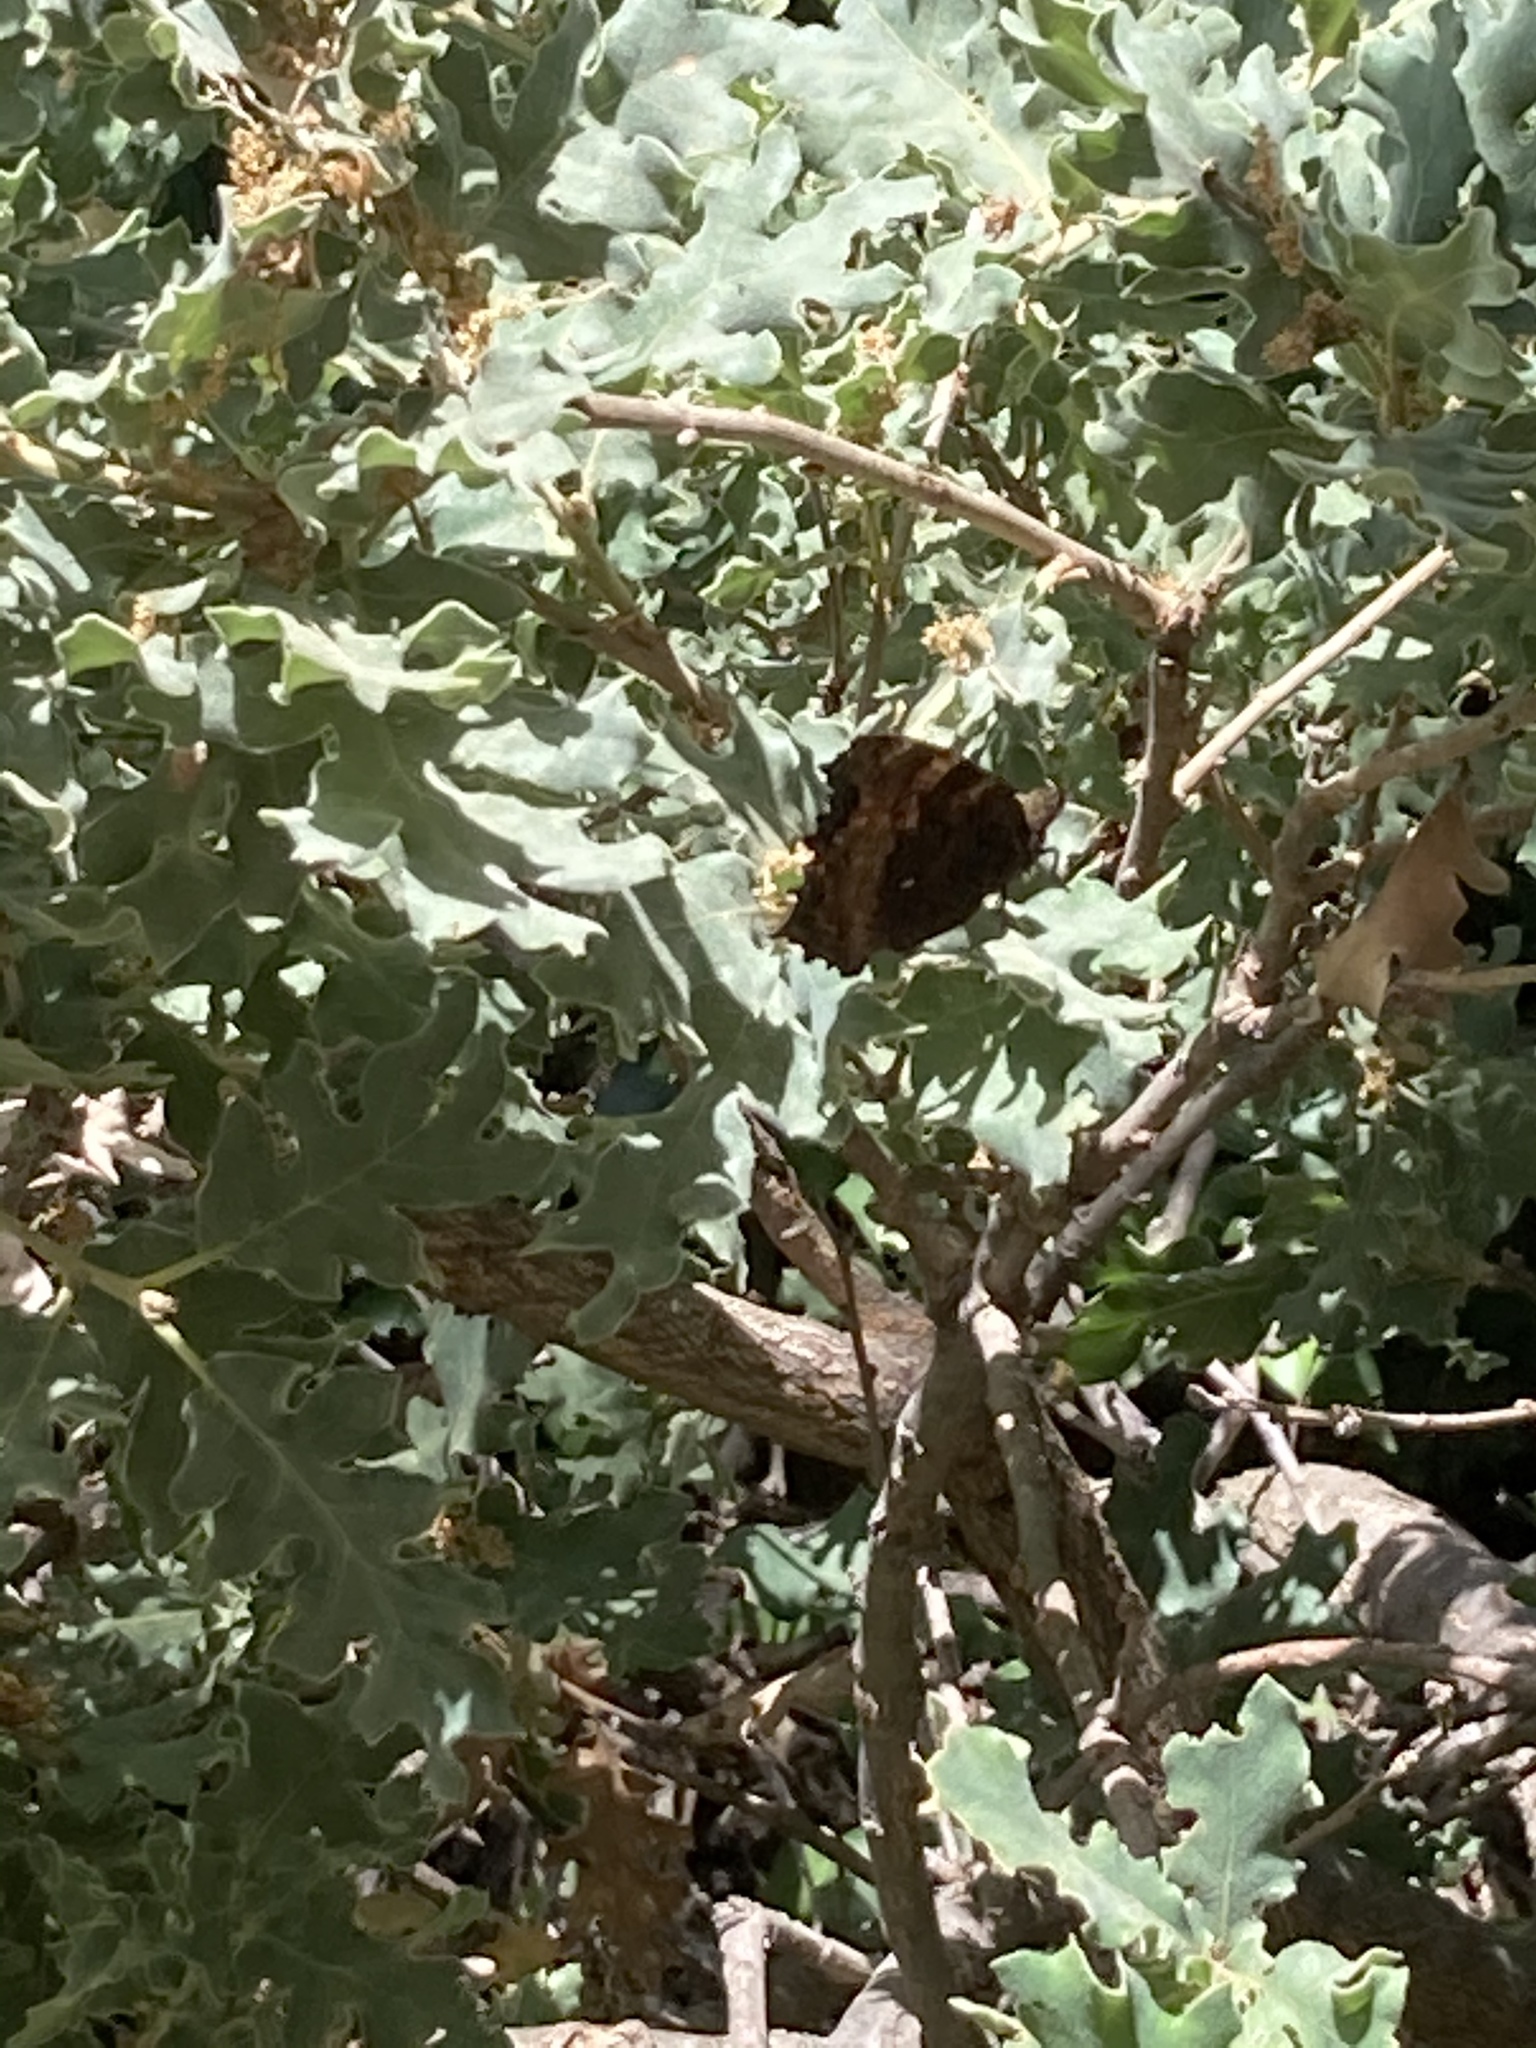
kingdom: Animalia
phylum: Arthropoda
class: Insecta
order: Lepidoptera
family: Nymphalidae
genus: Nymphalis
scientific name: Nymphalis polychloros
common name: Large tortoiseshell
